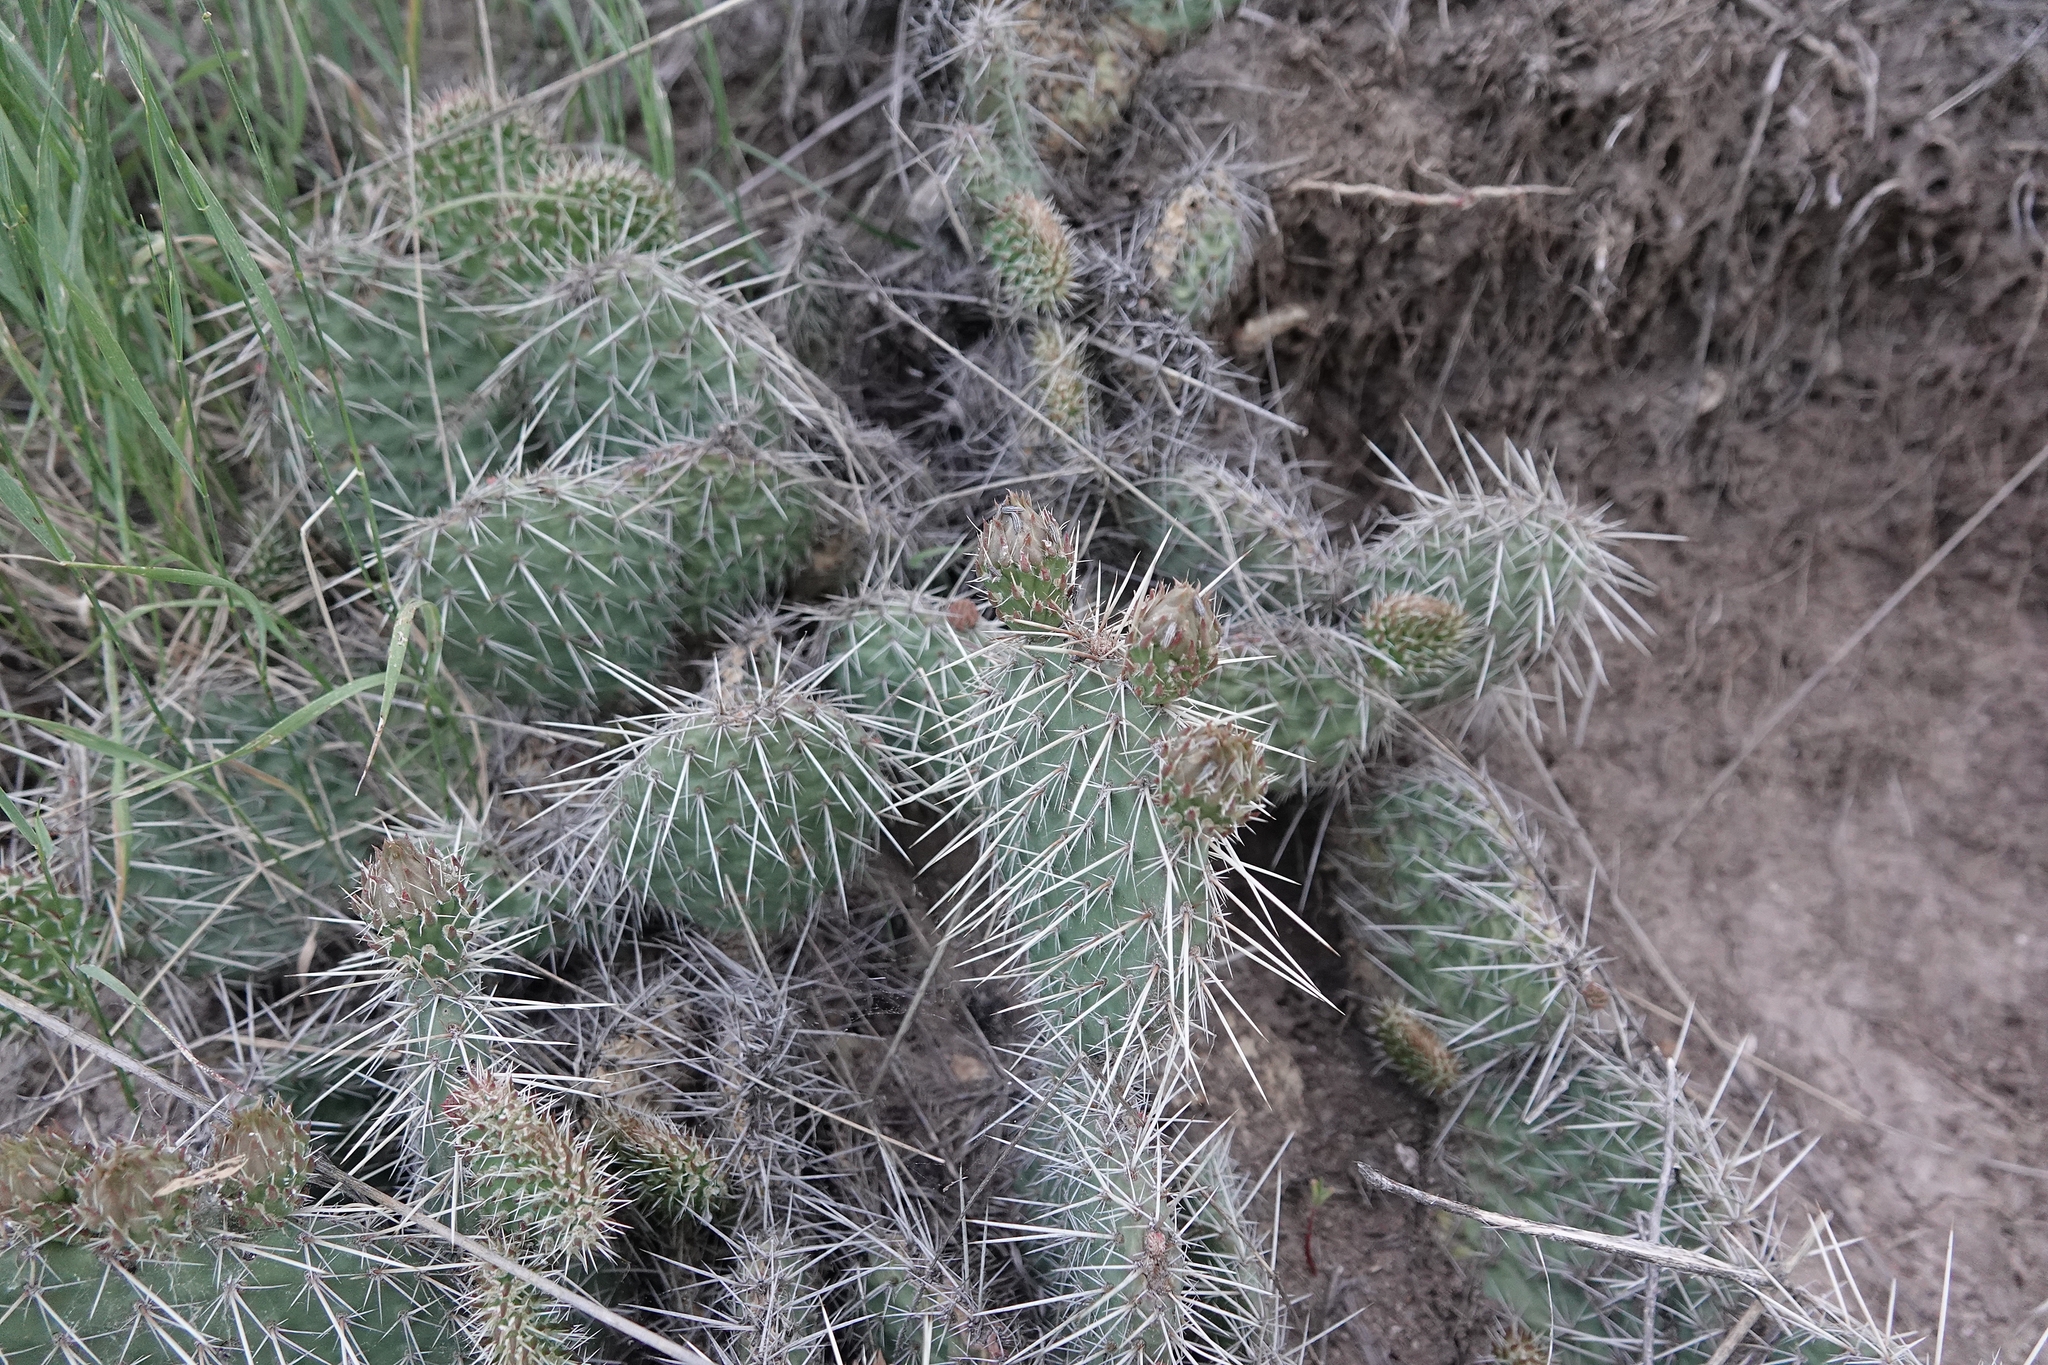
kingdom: Plantae
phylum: Tracheophyta
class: Magnoliopsida
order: Caryophyllales
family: Cactaceae
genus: Opuntia
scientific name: Opuntia polyacantha
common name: Plains prickly-pear
